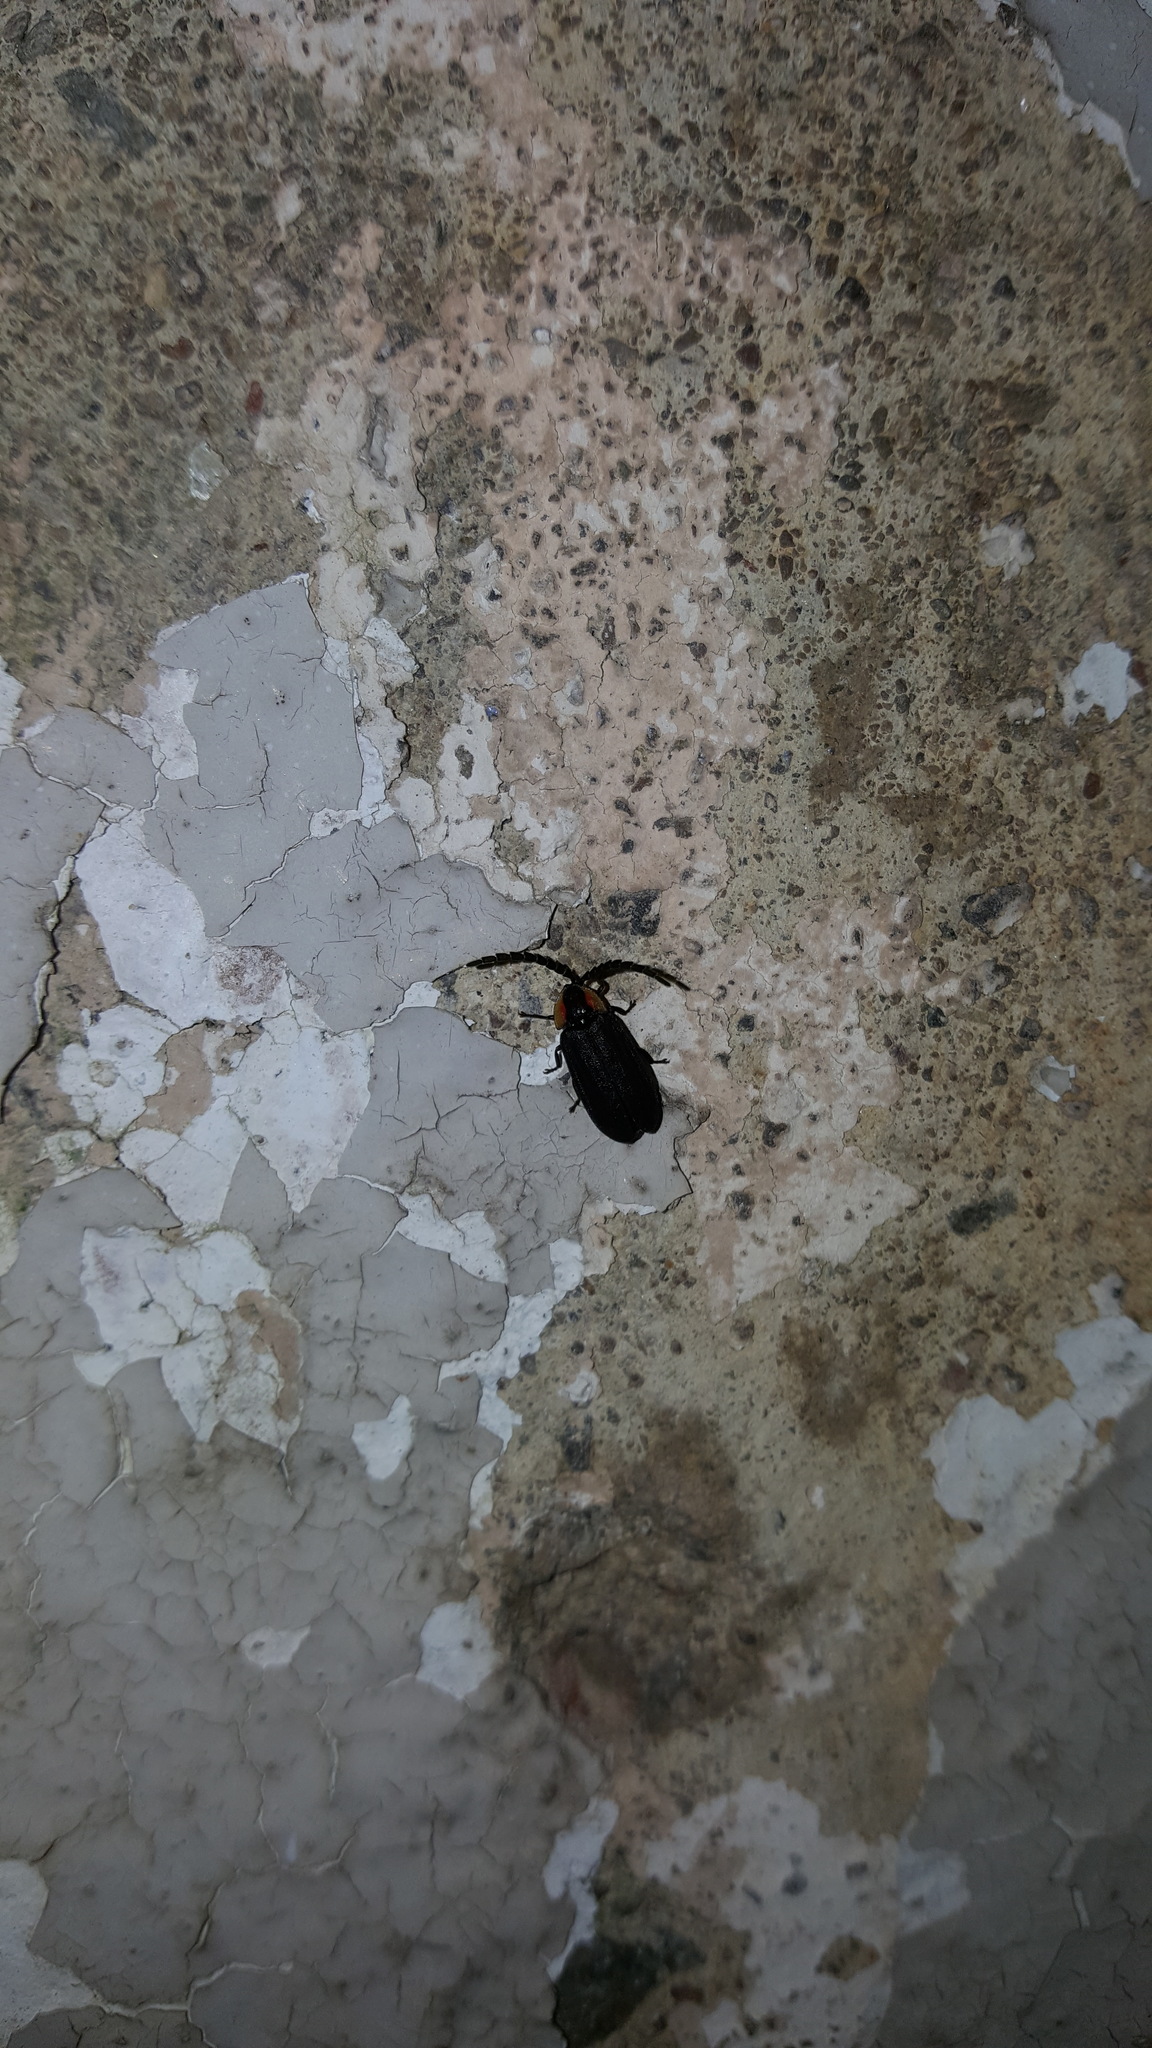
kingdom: Animalia
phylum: Arthropoda
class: Insecta
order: Coleoptera
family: Lampyridae
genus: Lucidota
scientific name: Lucidota atra
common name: Black firefly
